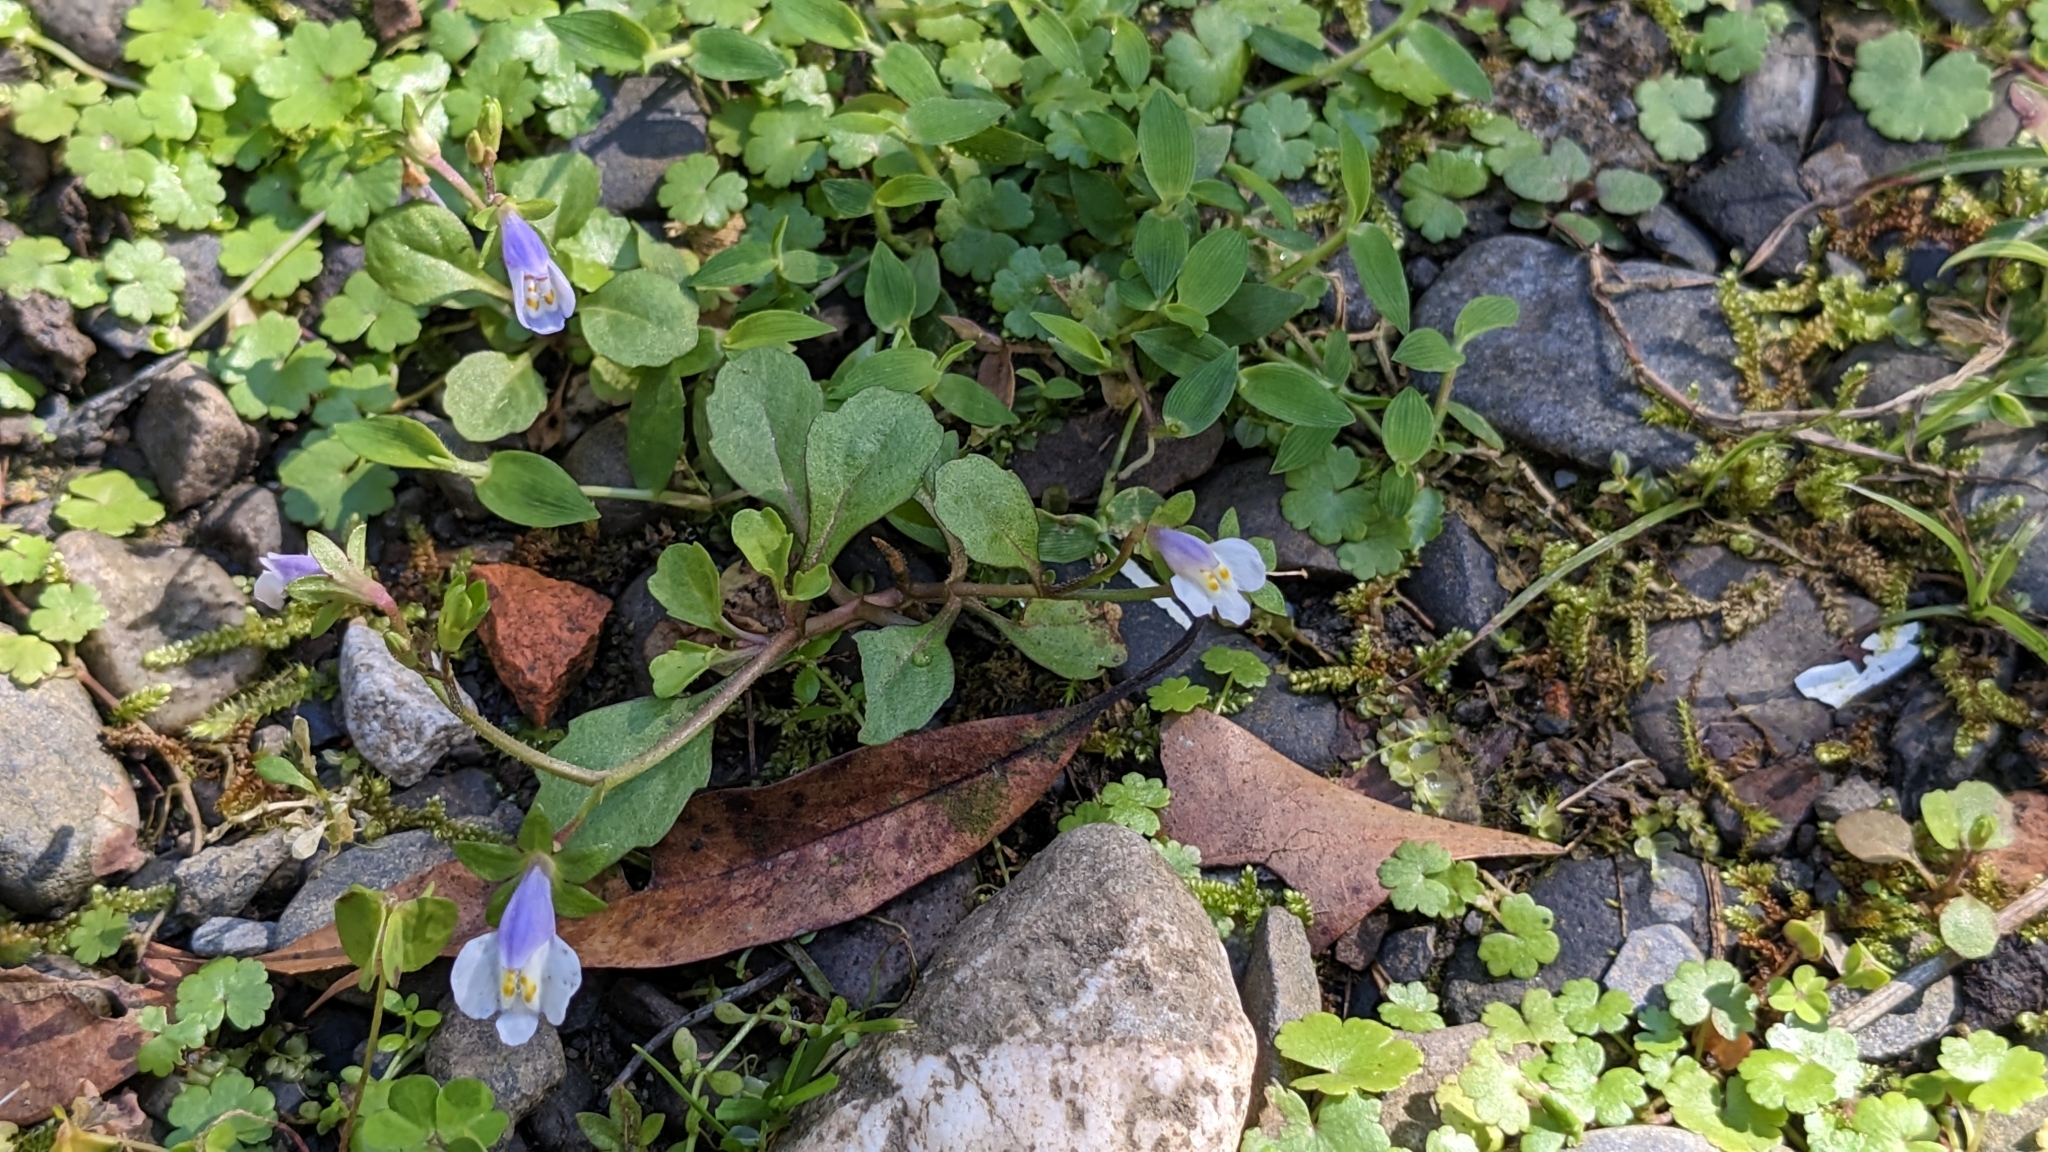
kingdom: Plantae
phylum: Tracheophyta
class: Magnoliopsida
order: Lamiales
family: Mazaceae
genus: Mazus
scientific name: Mazus pumilus
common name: Japanese mazus
